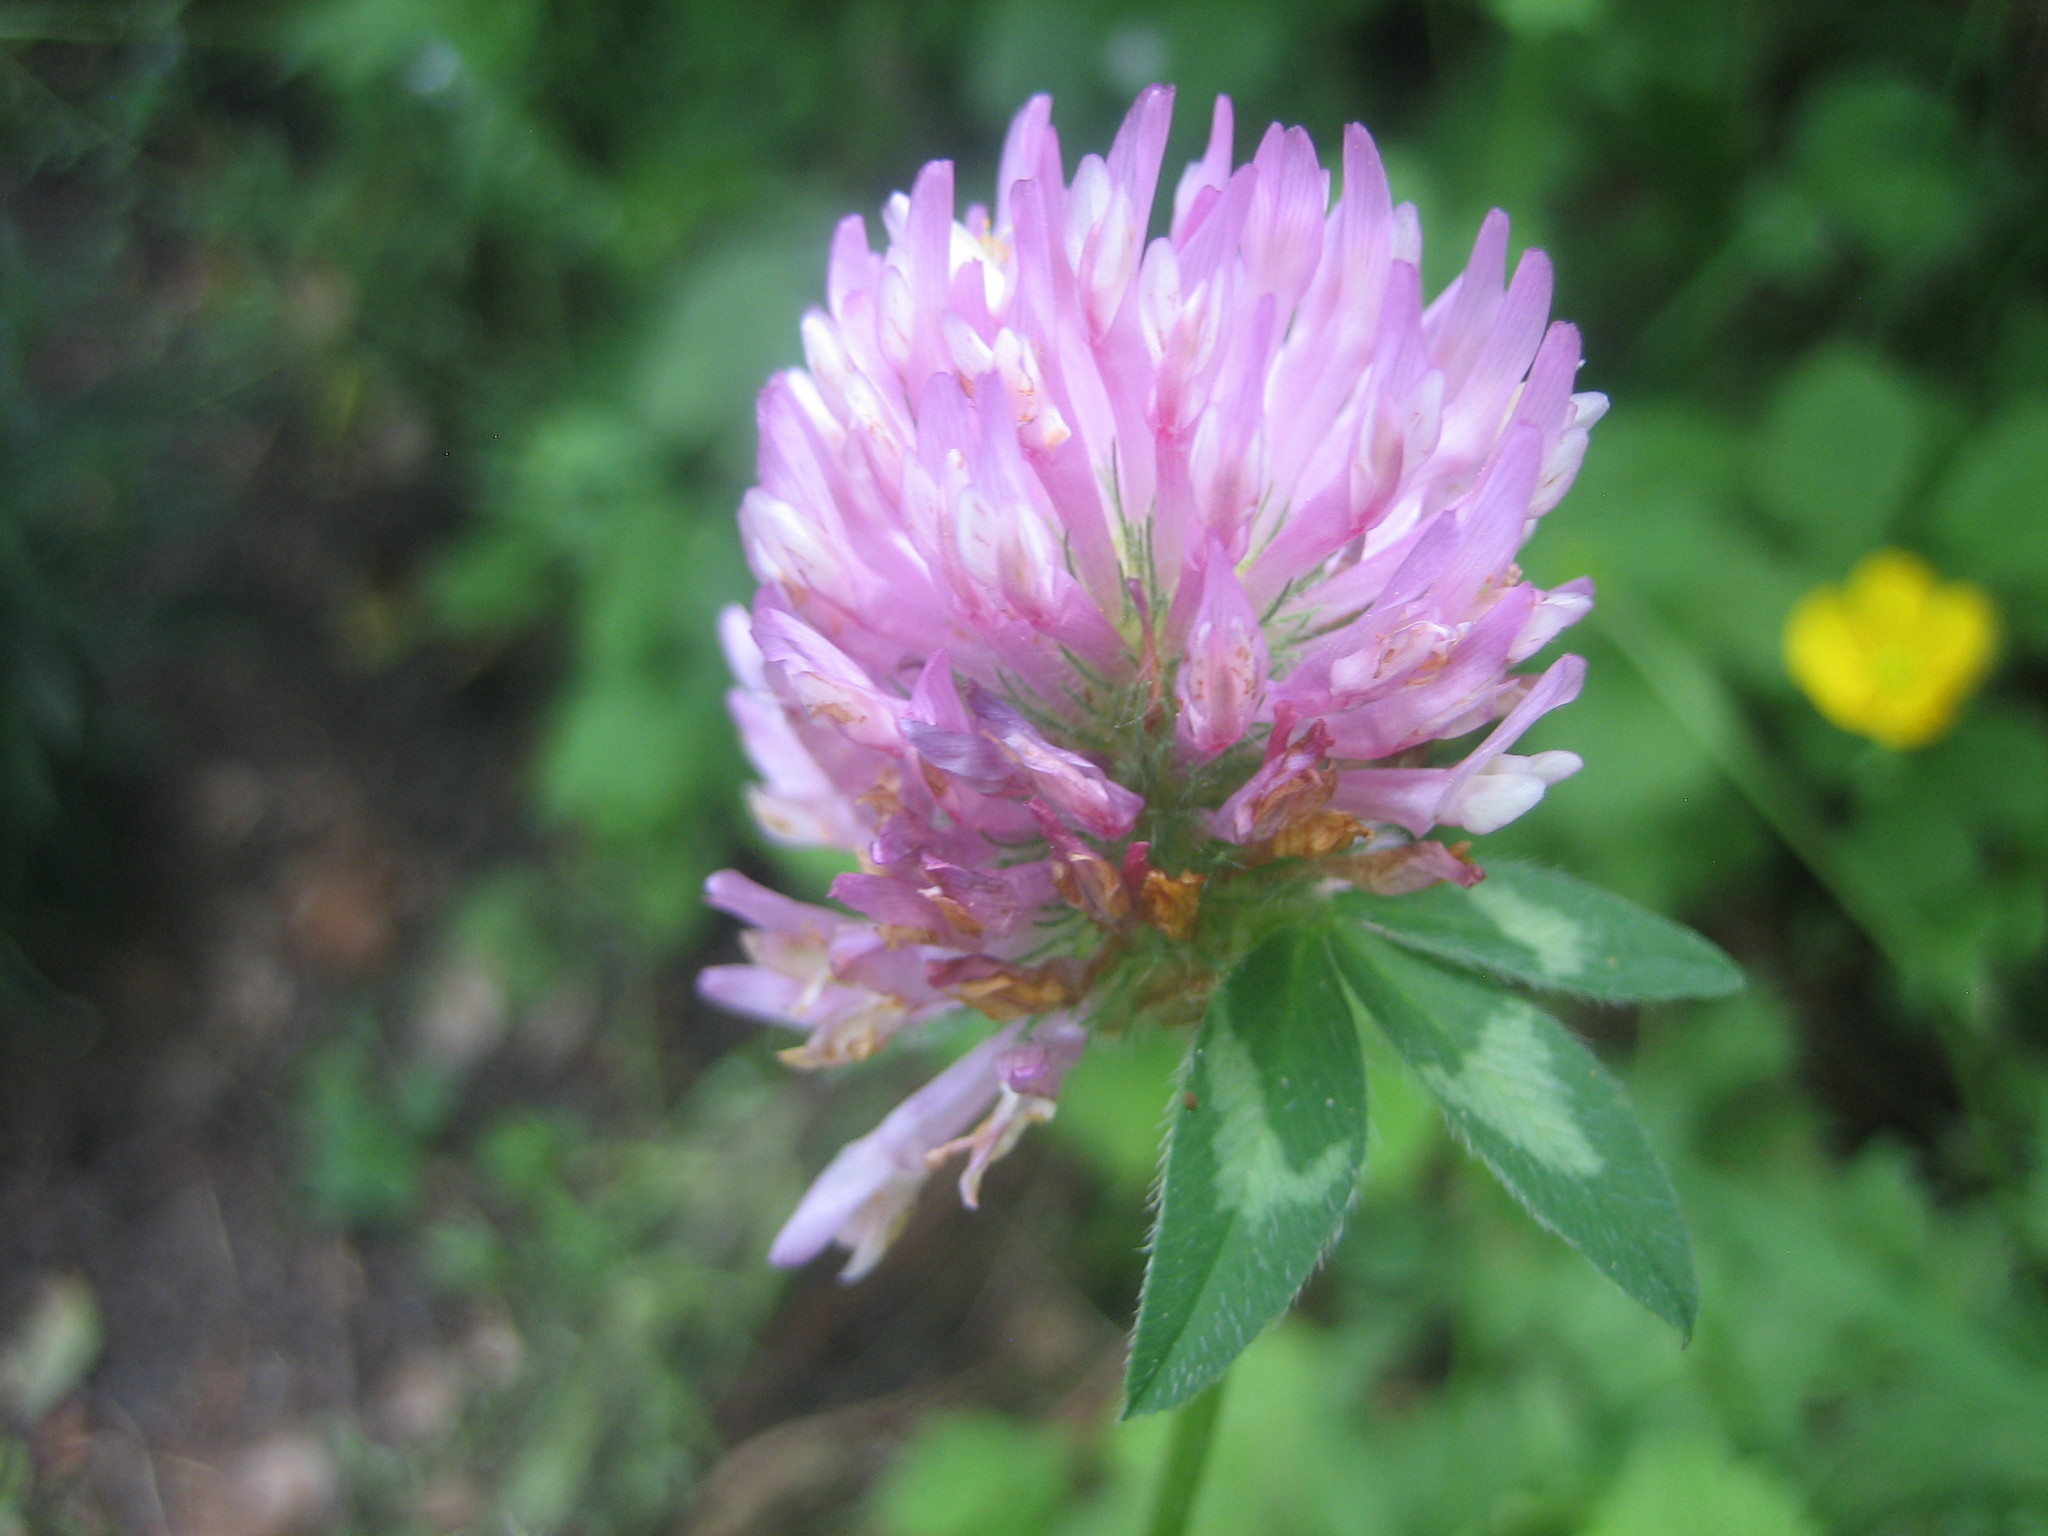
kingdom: Plantae
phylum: Tracheophyta
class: Magnoliopsida
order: Fabales
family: Fabaceae
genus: Trifolium
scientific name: Trifolium pratense
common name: Red clover
